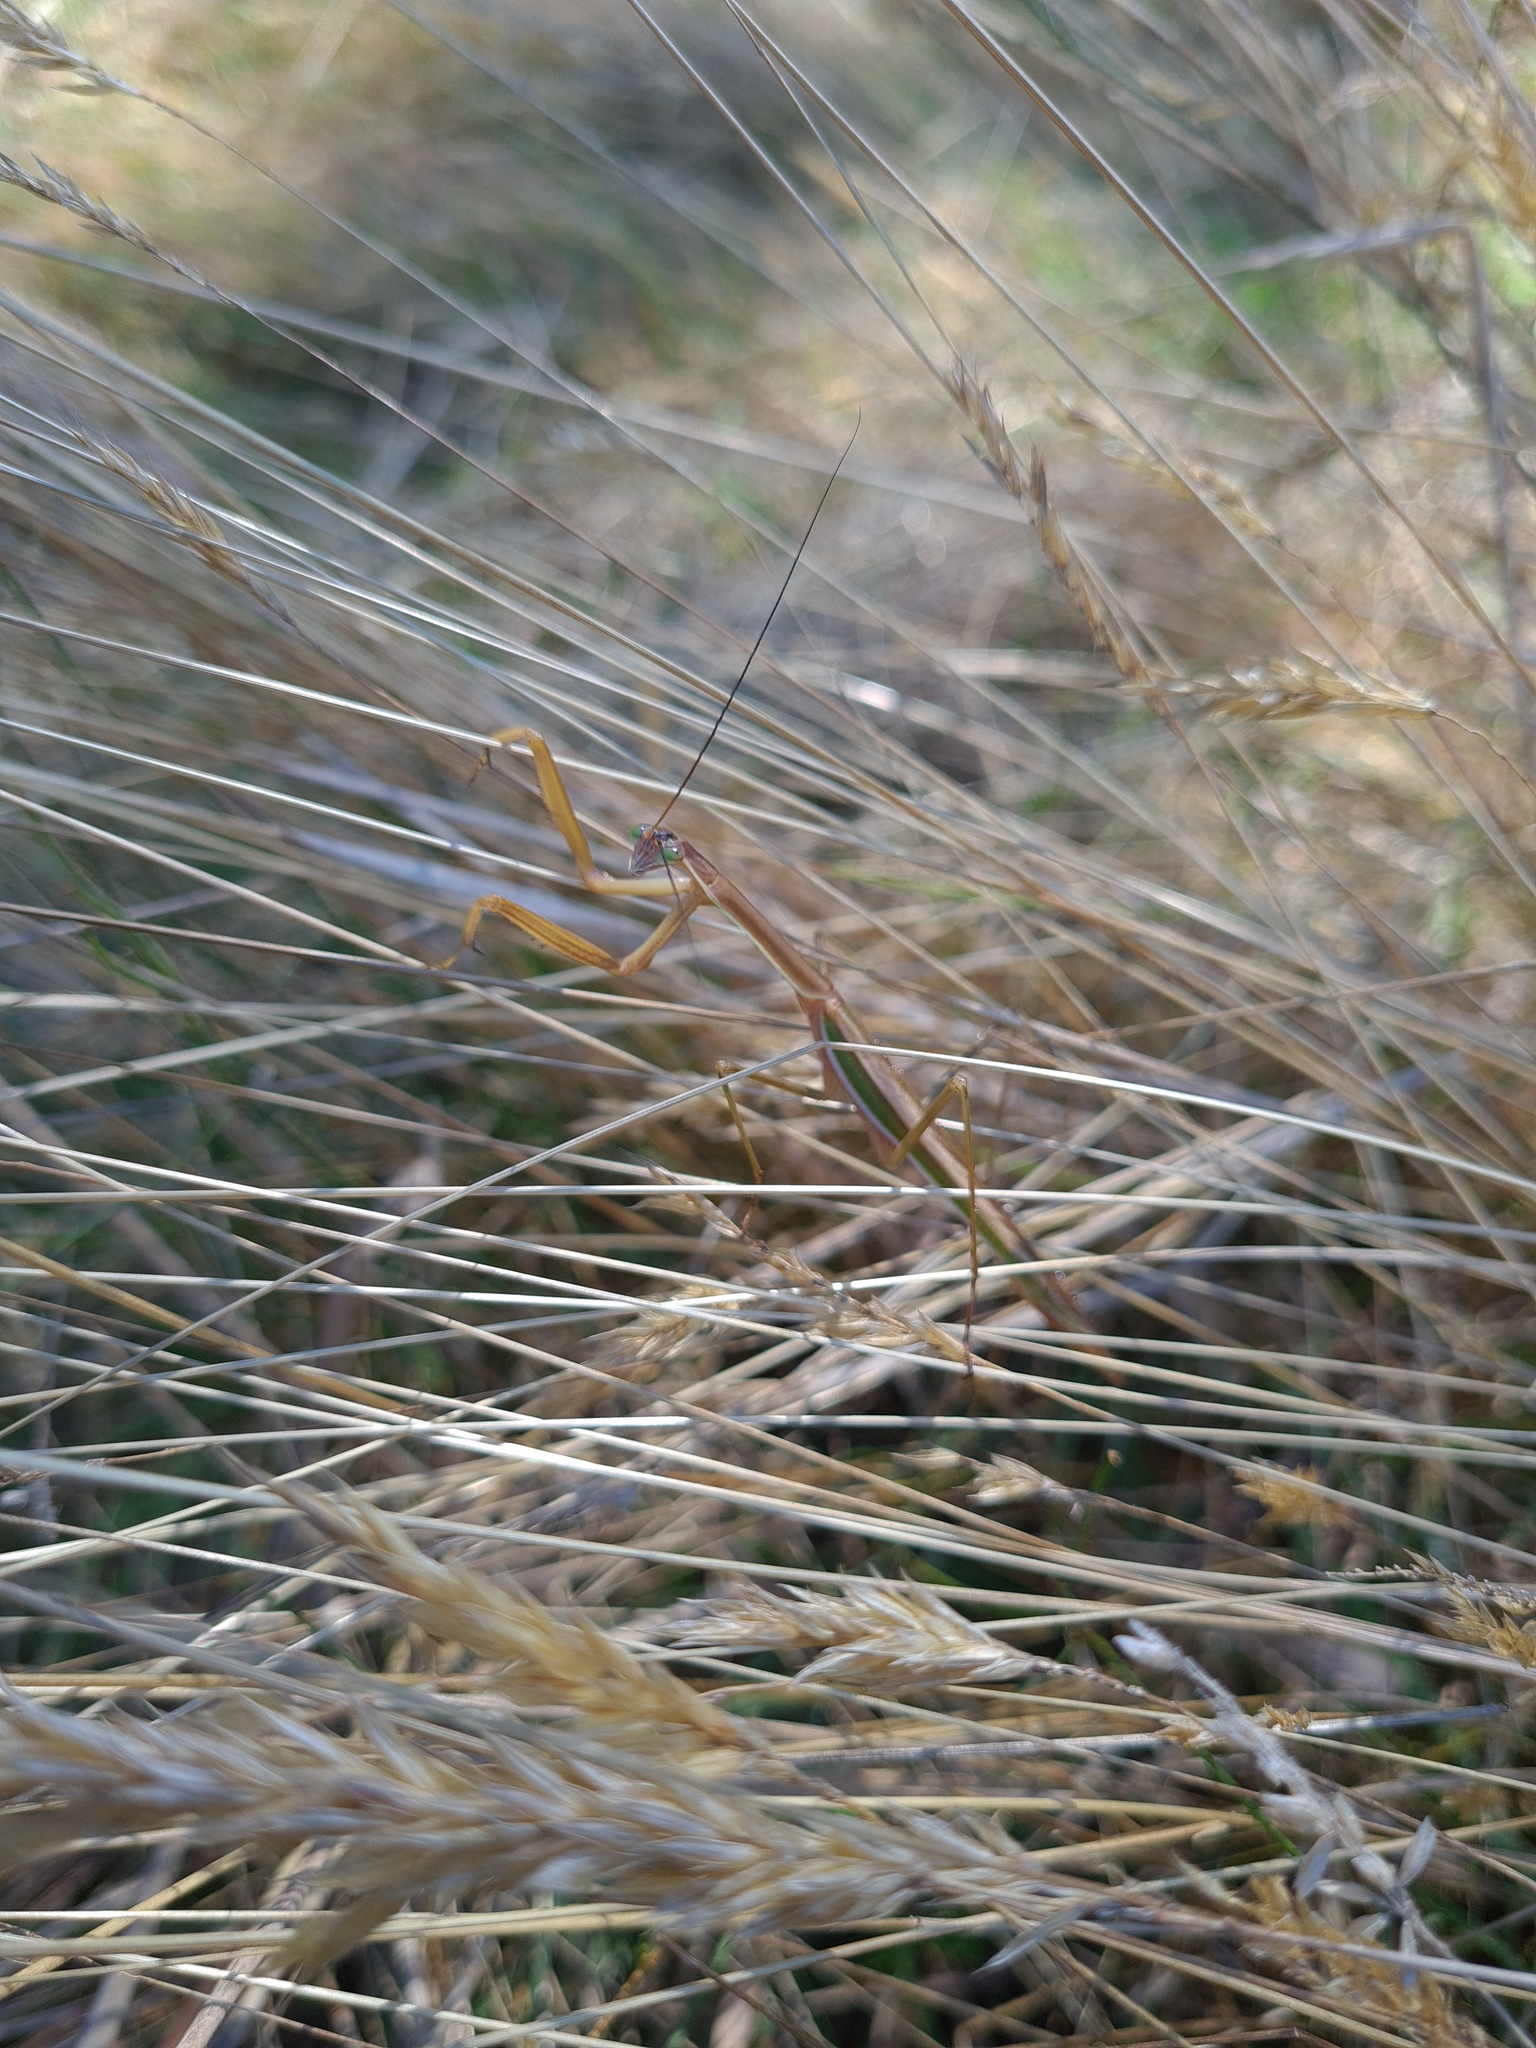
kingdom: Animalia
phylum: Arthropoda
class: Insecta
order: Mantodea
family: Mantidae
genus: Tenodera
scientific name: Tenodera australasiae
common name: Purple-winged mantis
